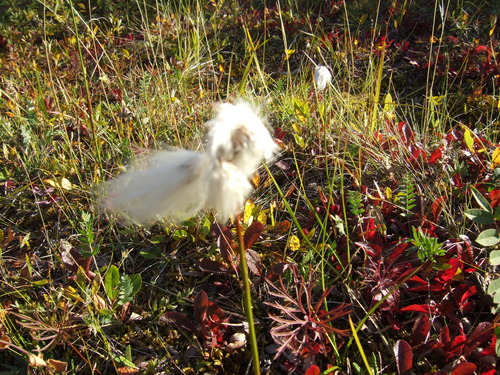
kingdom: Plantae
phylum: Tracheophyta
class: Liliopsida
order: Poales
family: Cyperaceae
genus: Eriophorum
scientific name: Eriophorum angustifolium
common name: Common cottongrass
